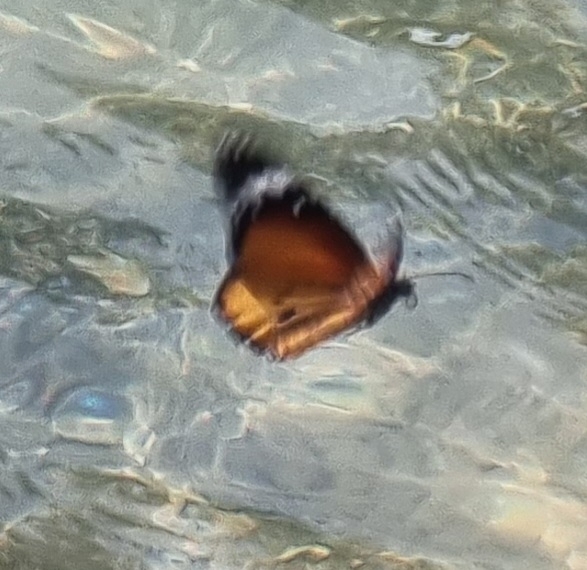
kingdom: Animalia
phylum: Arthropoda
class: Insecta
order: Lepidoptera
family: Nymphalidae
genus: Danaus
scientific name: Danaus chrysippus
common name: Plain tiger
